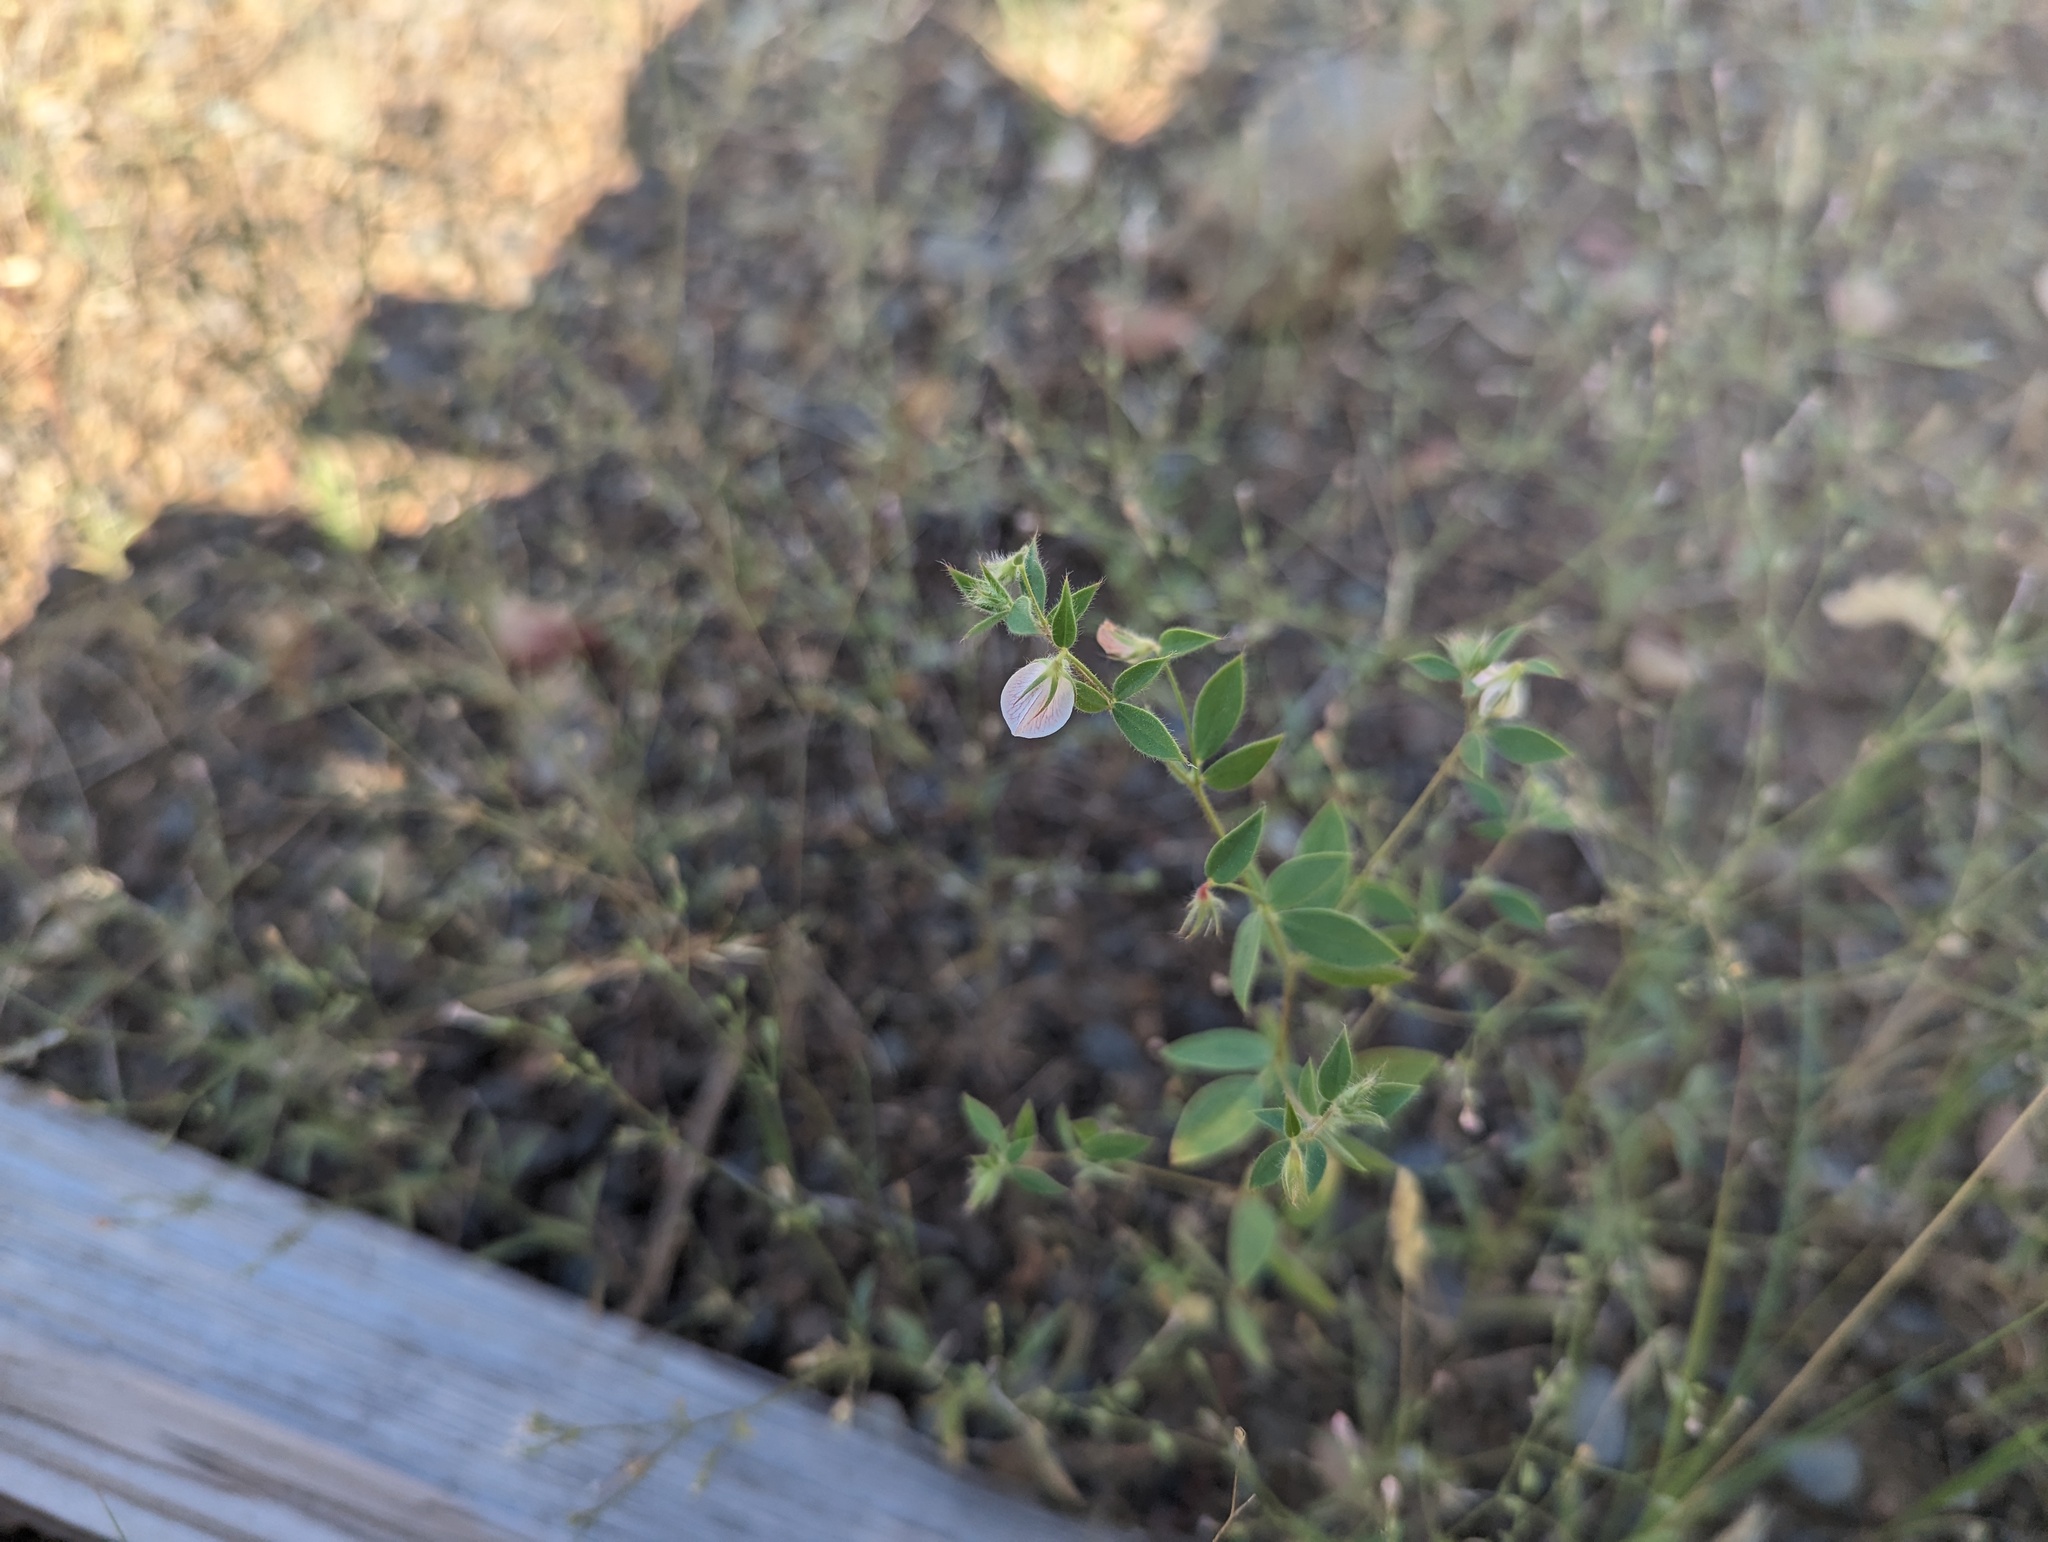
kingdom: Plantae
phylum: Tracheophyta
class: Magnoliopsida
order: Fabales
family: Fabaceae
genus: Acmispon
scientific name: Acmispon americanus
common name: American bird's-foot trefoil
